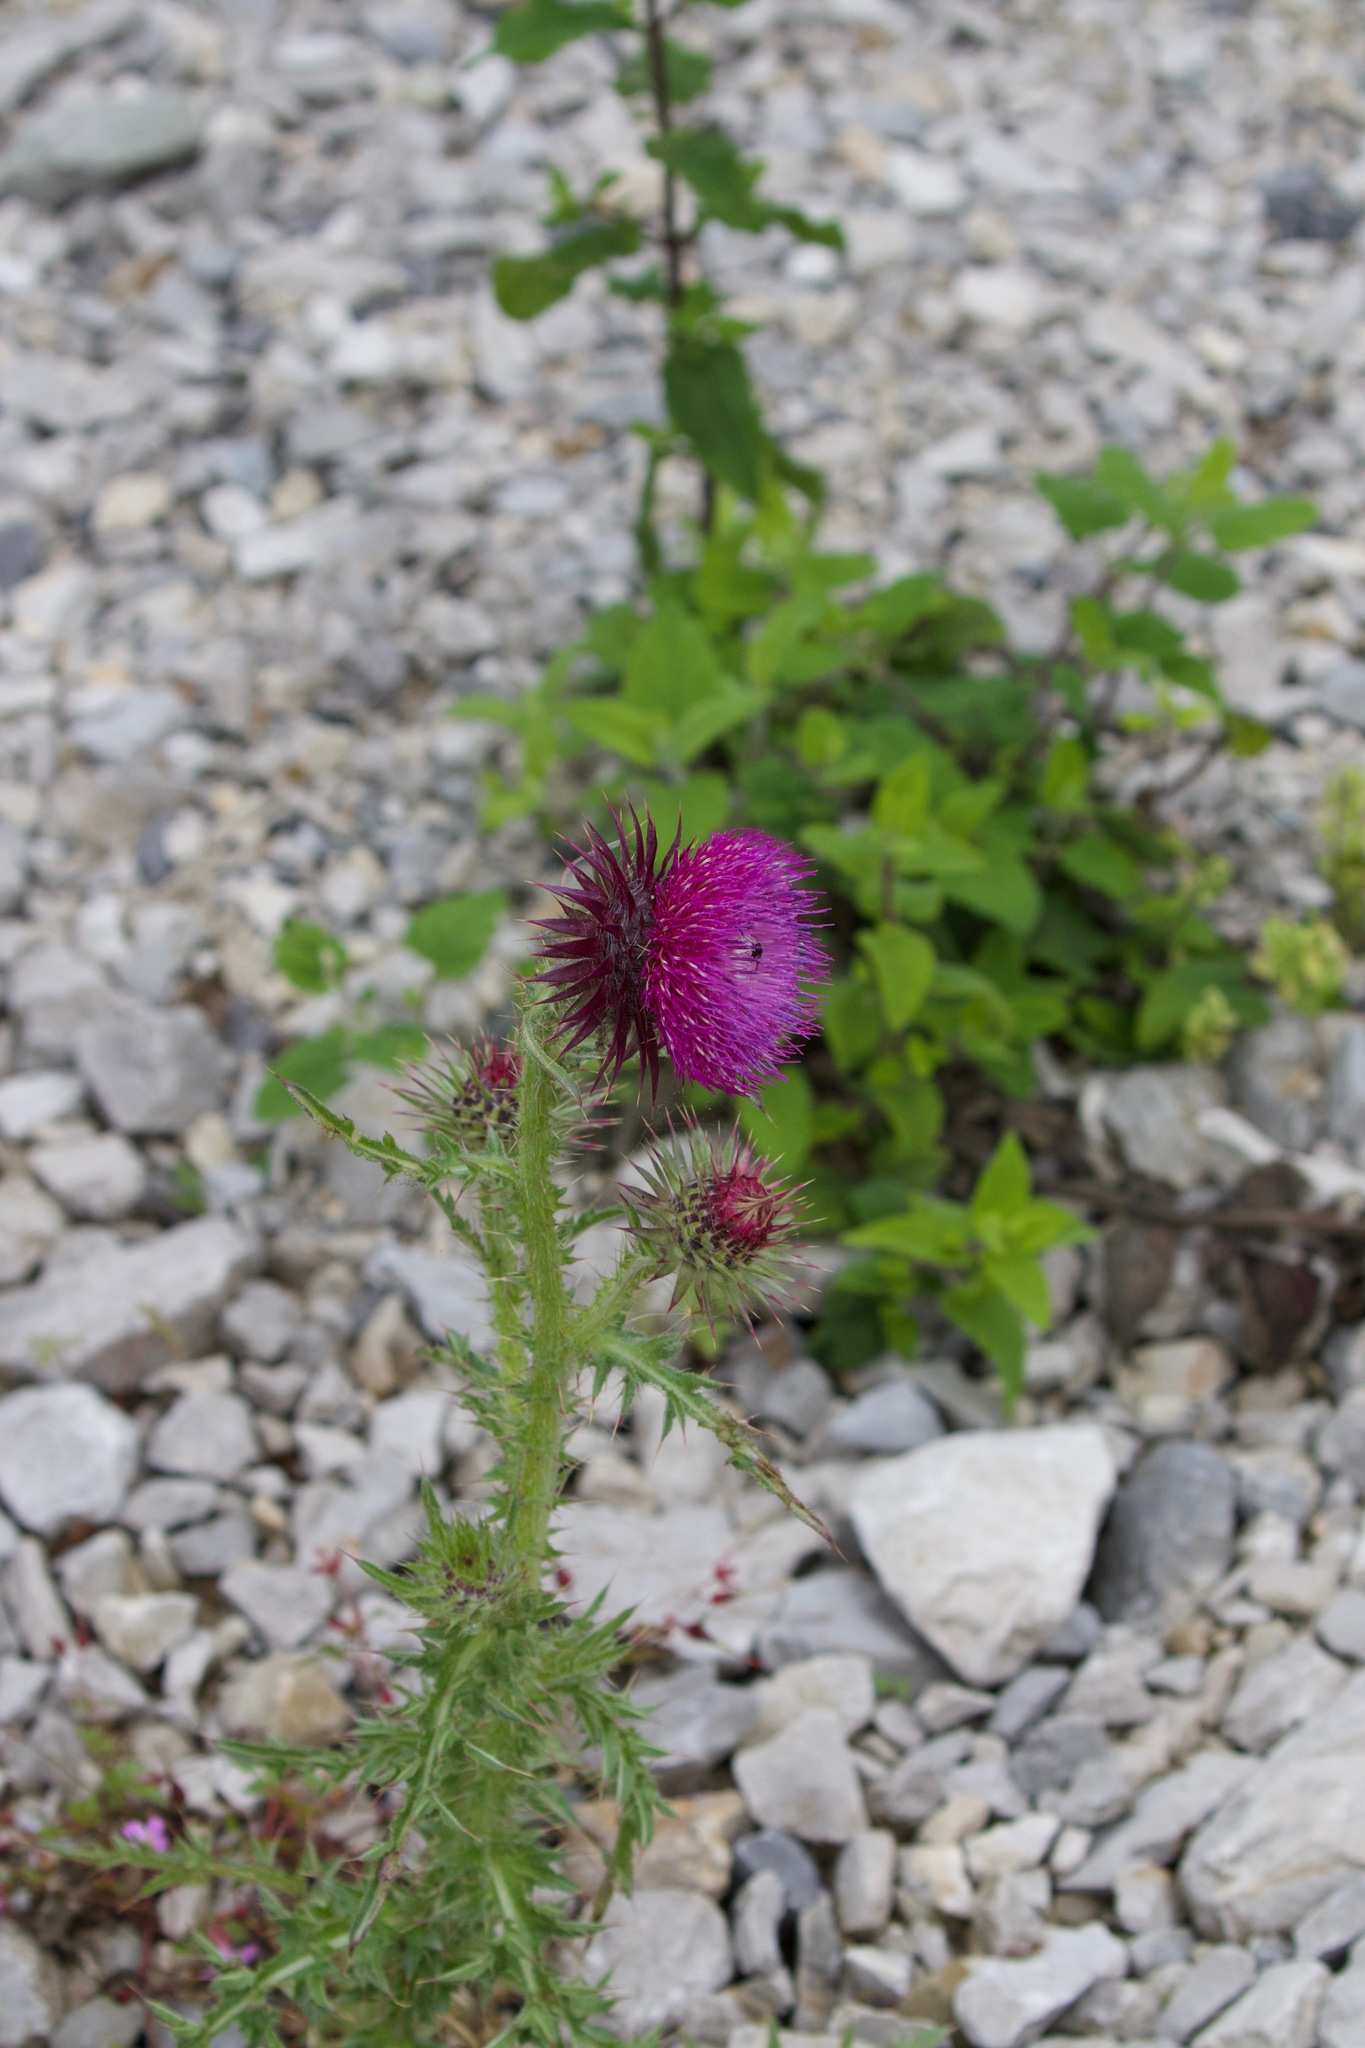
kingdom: Plantae
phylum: Tracheophyta
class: Magnoliopsida
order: Asterales
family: Asteraceae
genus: Carduus
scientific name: Carduus nutans
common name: Musk thistle
